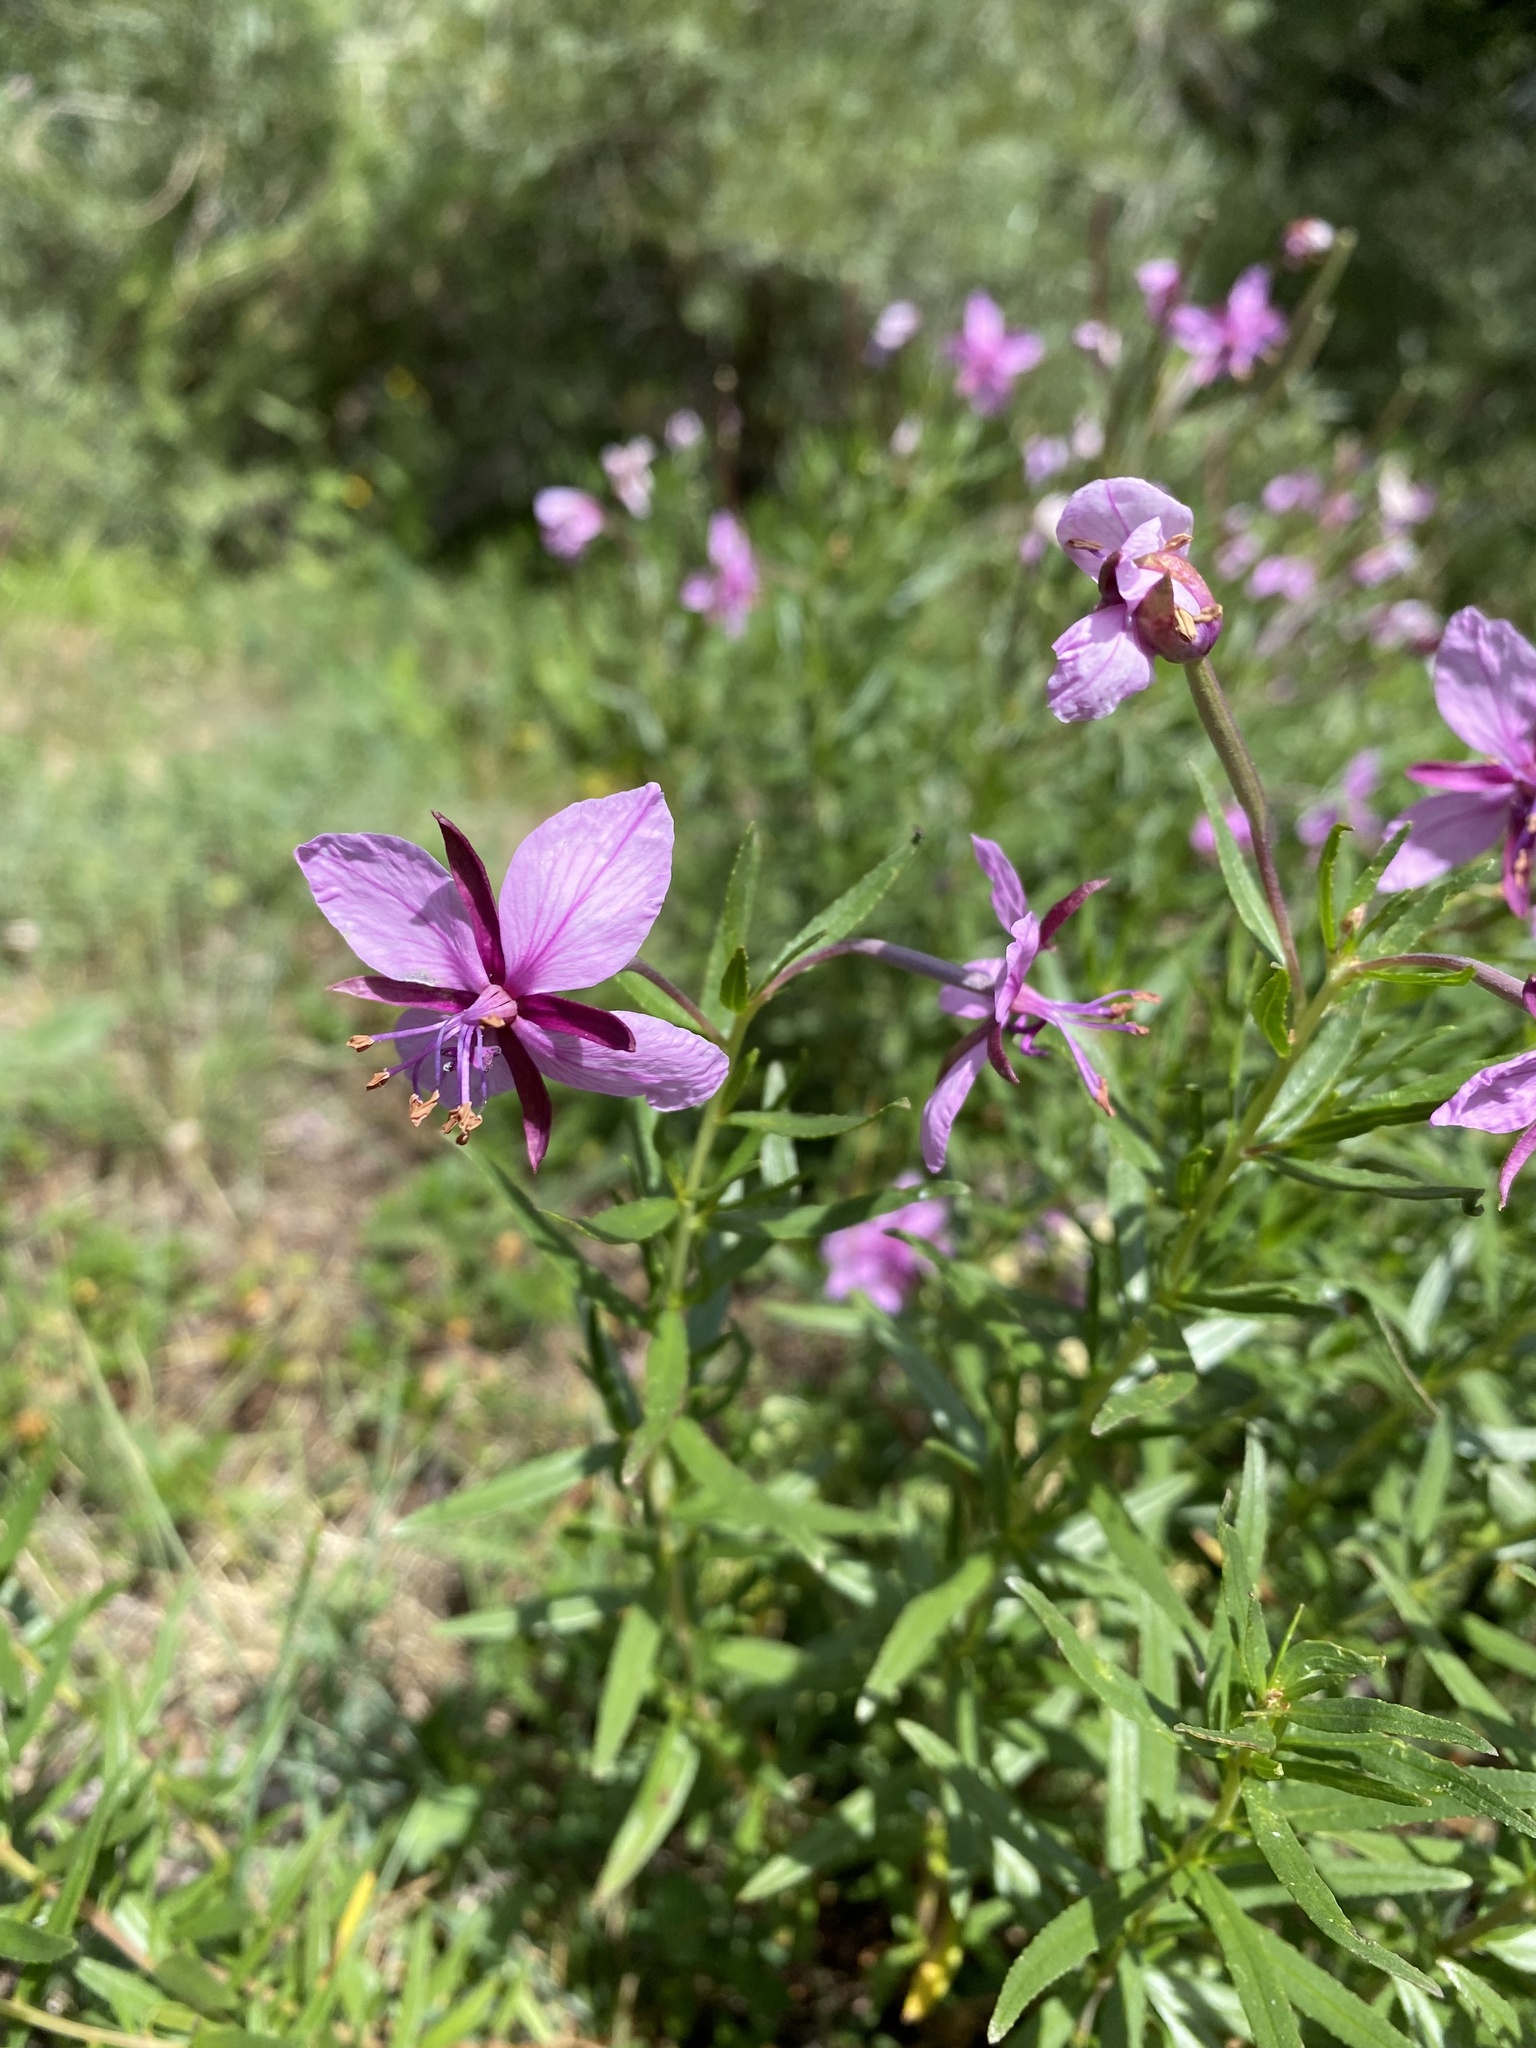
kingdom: Plantae
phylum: Tracheophyta
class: Magnoliopsida
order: Myrtales
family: Onagraceae
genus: Chamaenerion
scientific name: Chamaenerion fleischeri
